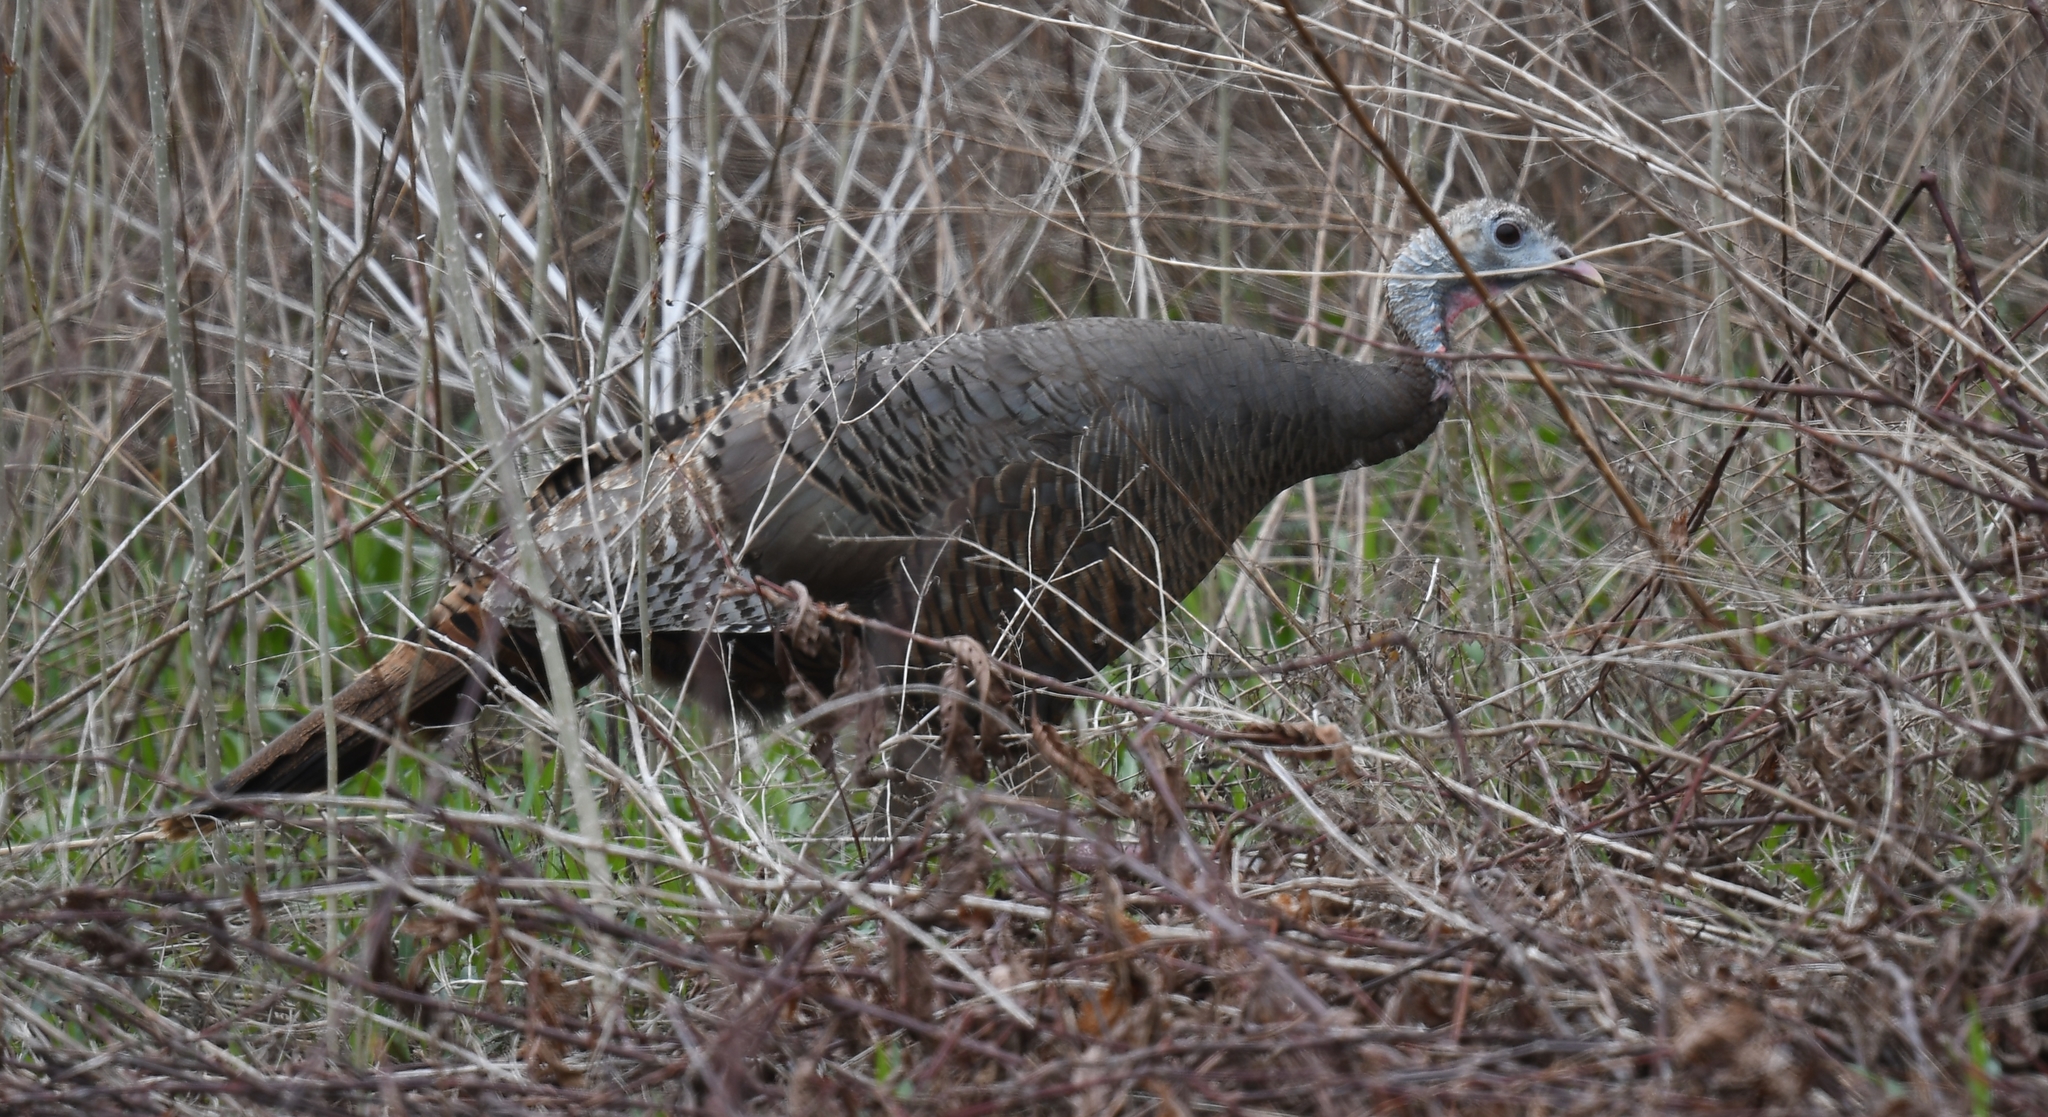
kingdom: Animalia
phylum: Chordata
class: Aves
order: Galliformes
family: Phasianidae
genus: Meleagris
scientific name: Meleagris gallopavo
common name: Wild turkey
